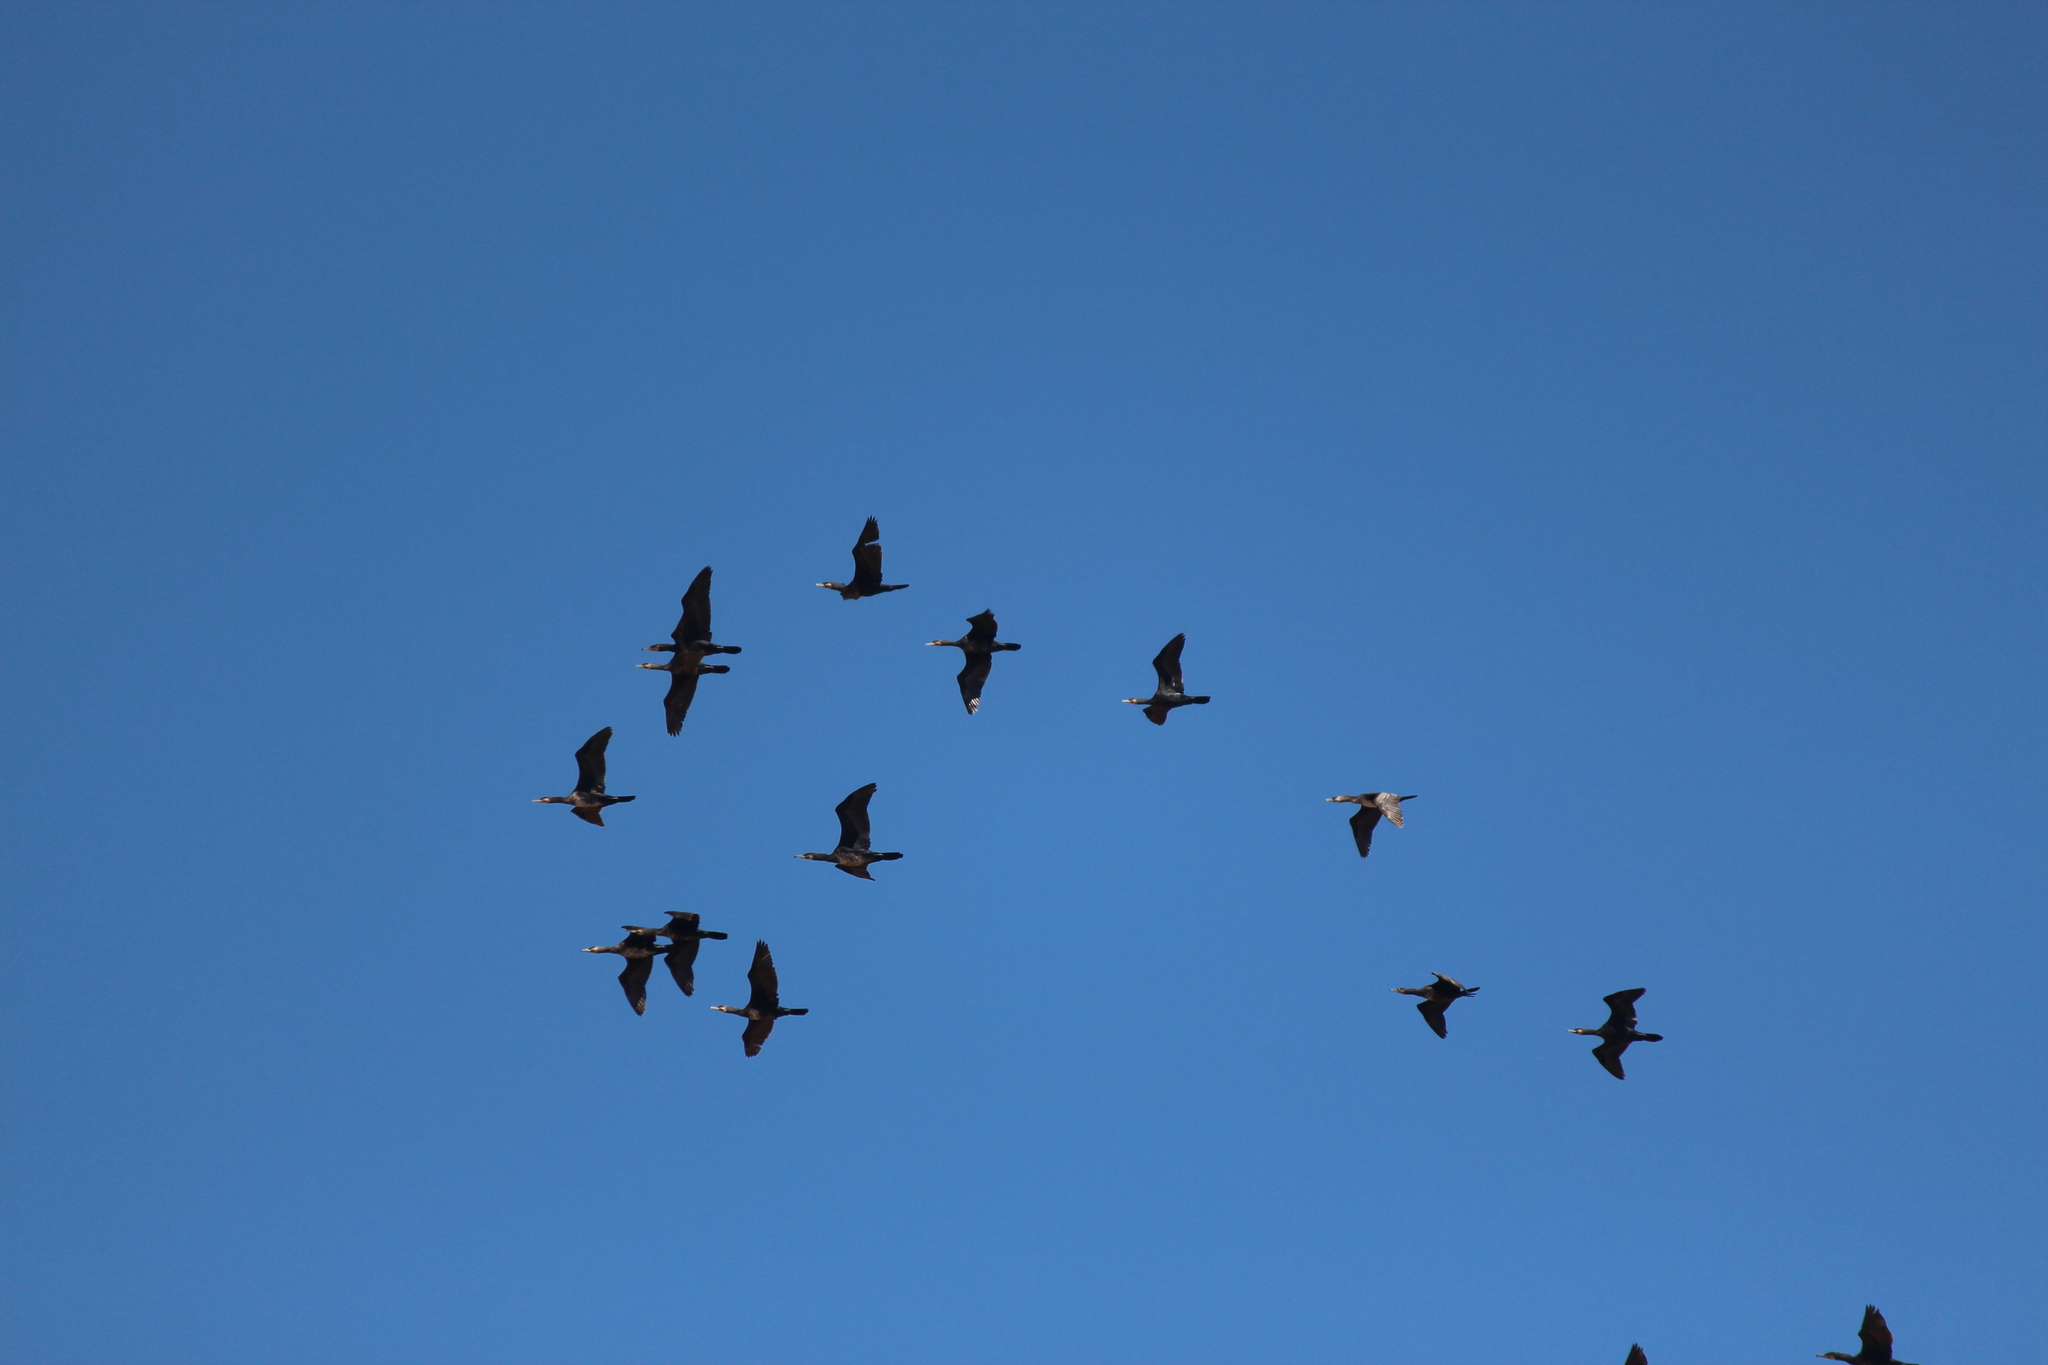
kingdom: Animalia
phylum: Chordata
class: Aves
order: Suliformes
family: Phalacrocoracidae
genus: Phalacrocorax
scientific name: Phalacrocorax carbo
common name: Great cormorant
